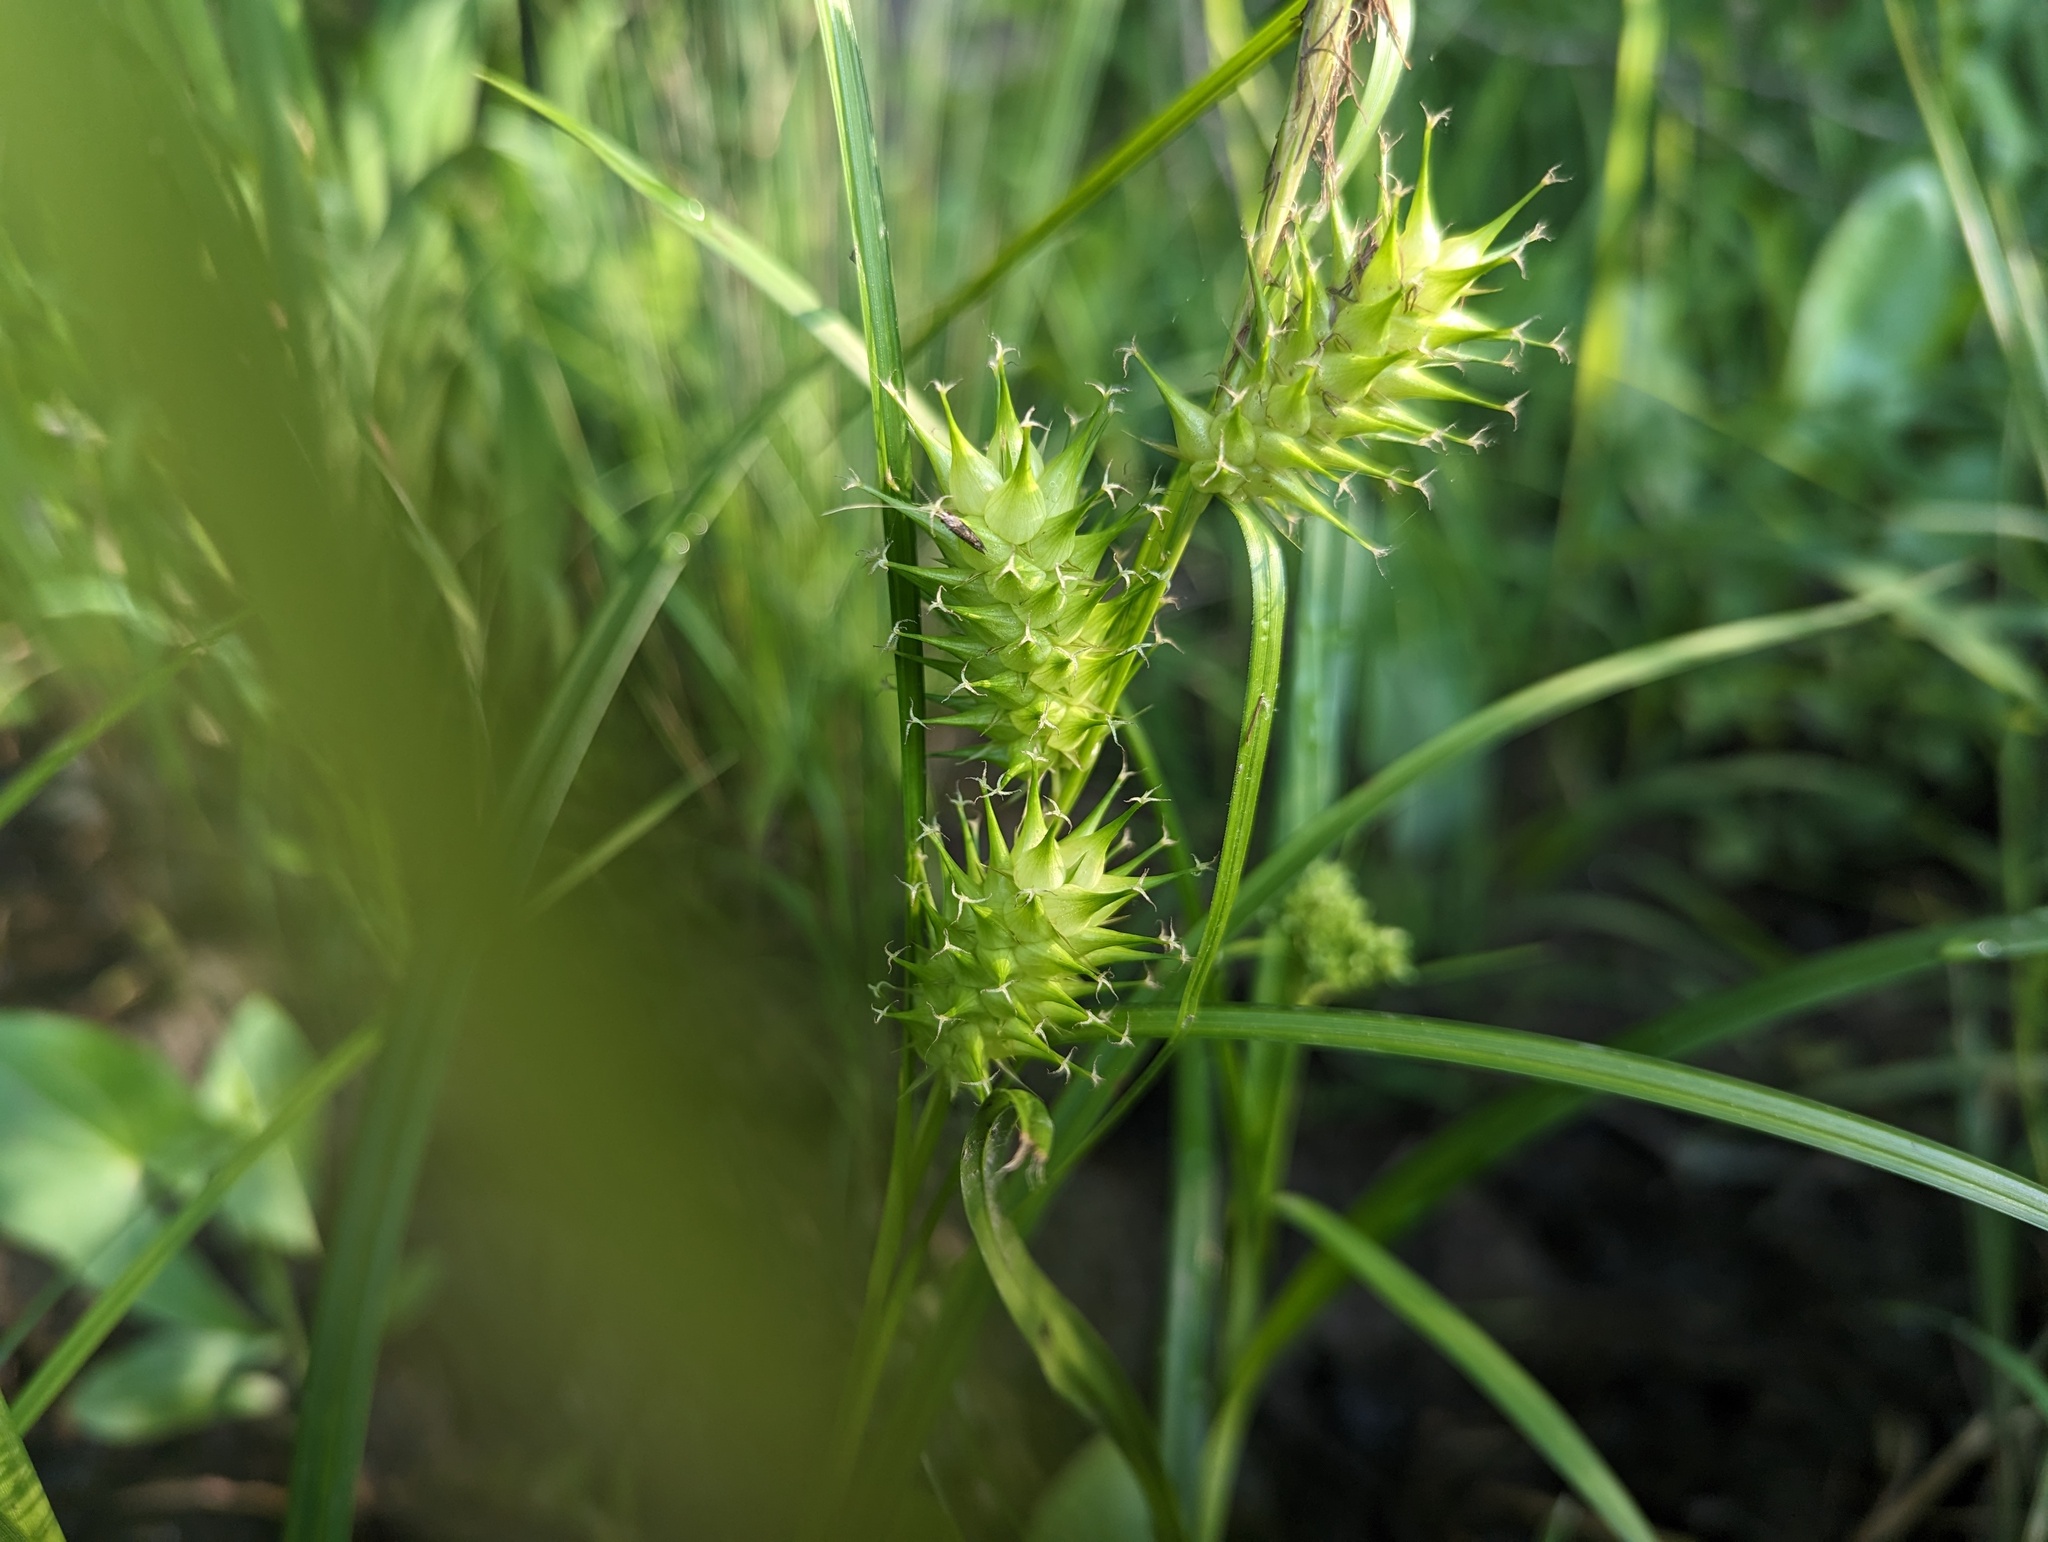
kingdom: Plantae
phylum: Tracheophyta
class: Liliopsida
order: Poales
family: Cyperaceae
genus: Carex
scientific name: Carex lupulina
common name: Hop sedge
